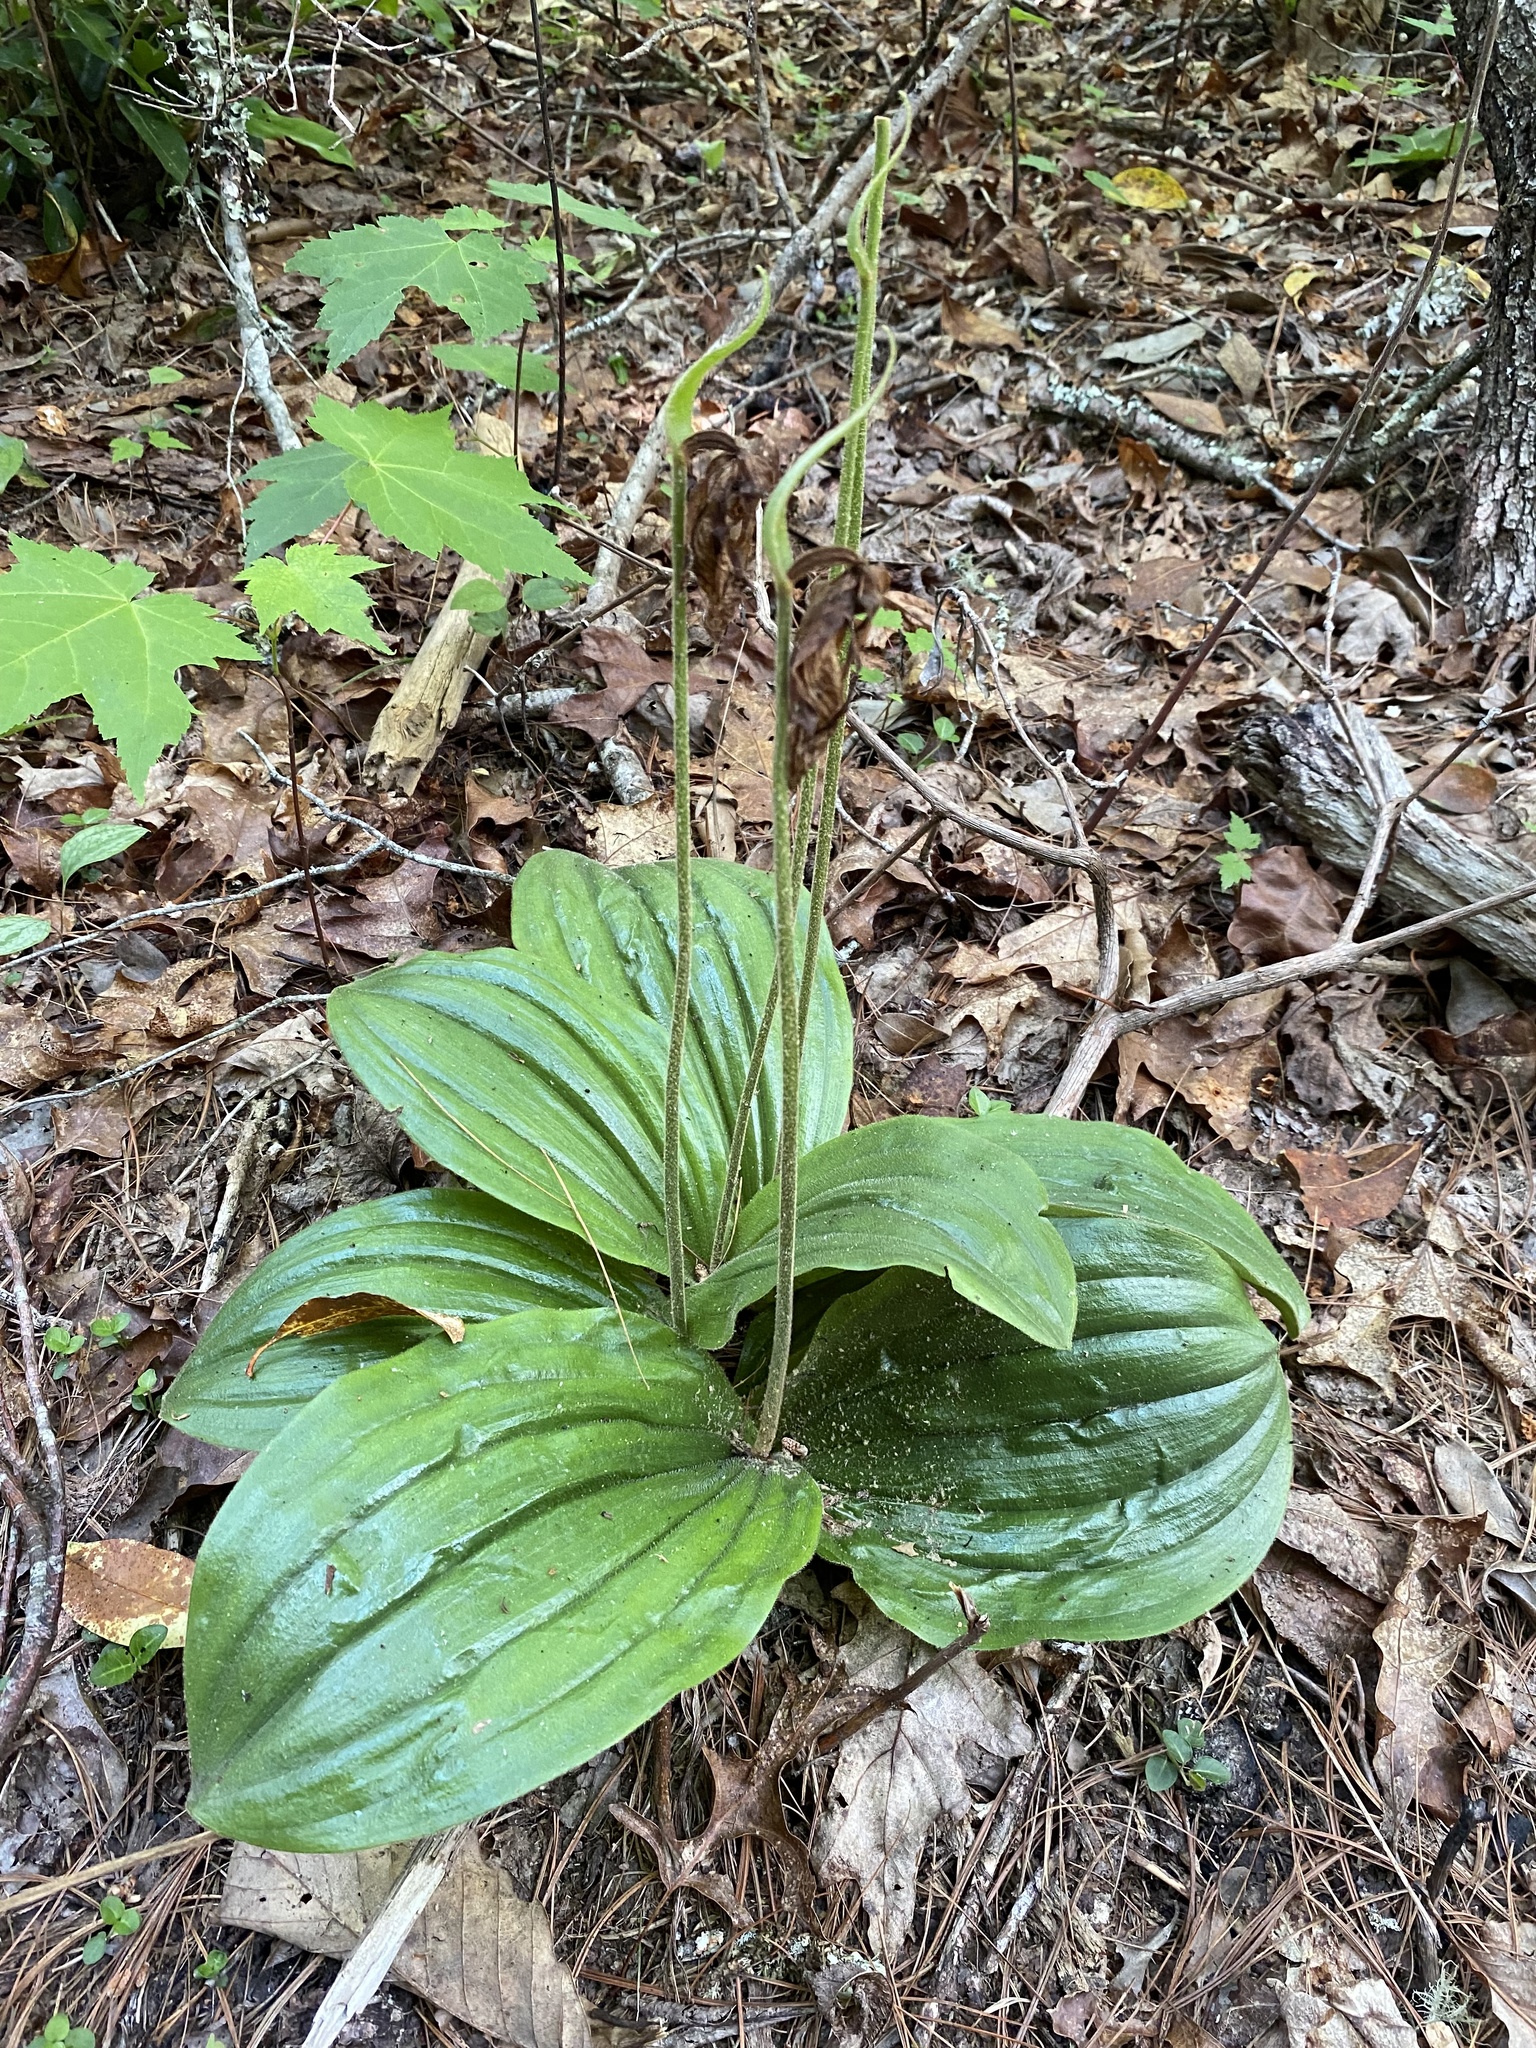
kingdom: Plantae
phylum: Tracheophyta
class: Liliopsida
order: Asparagales
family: Orchidaceae
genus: Cypripedium
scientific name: Cypripedium acaule
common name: Pink lady's-slipper
